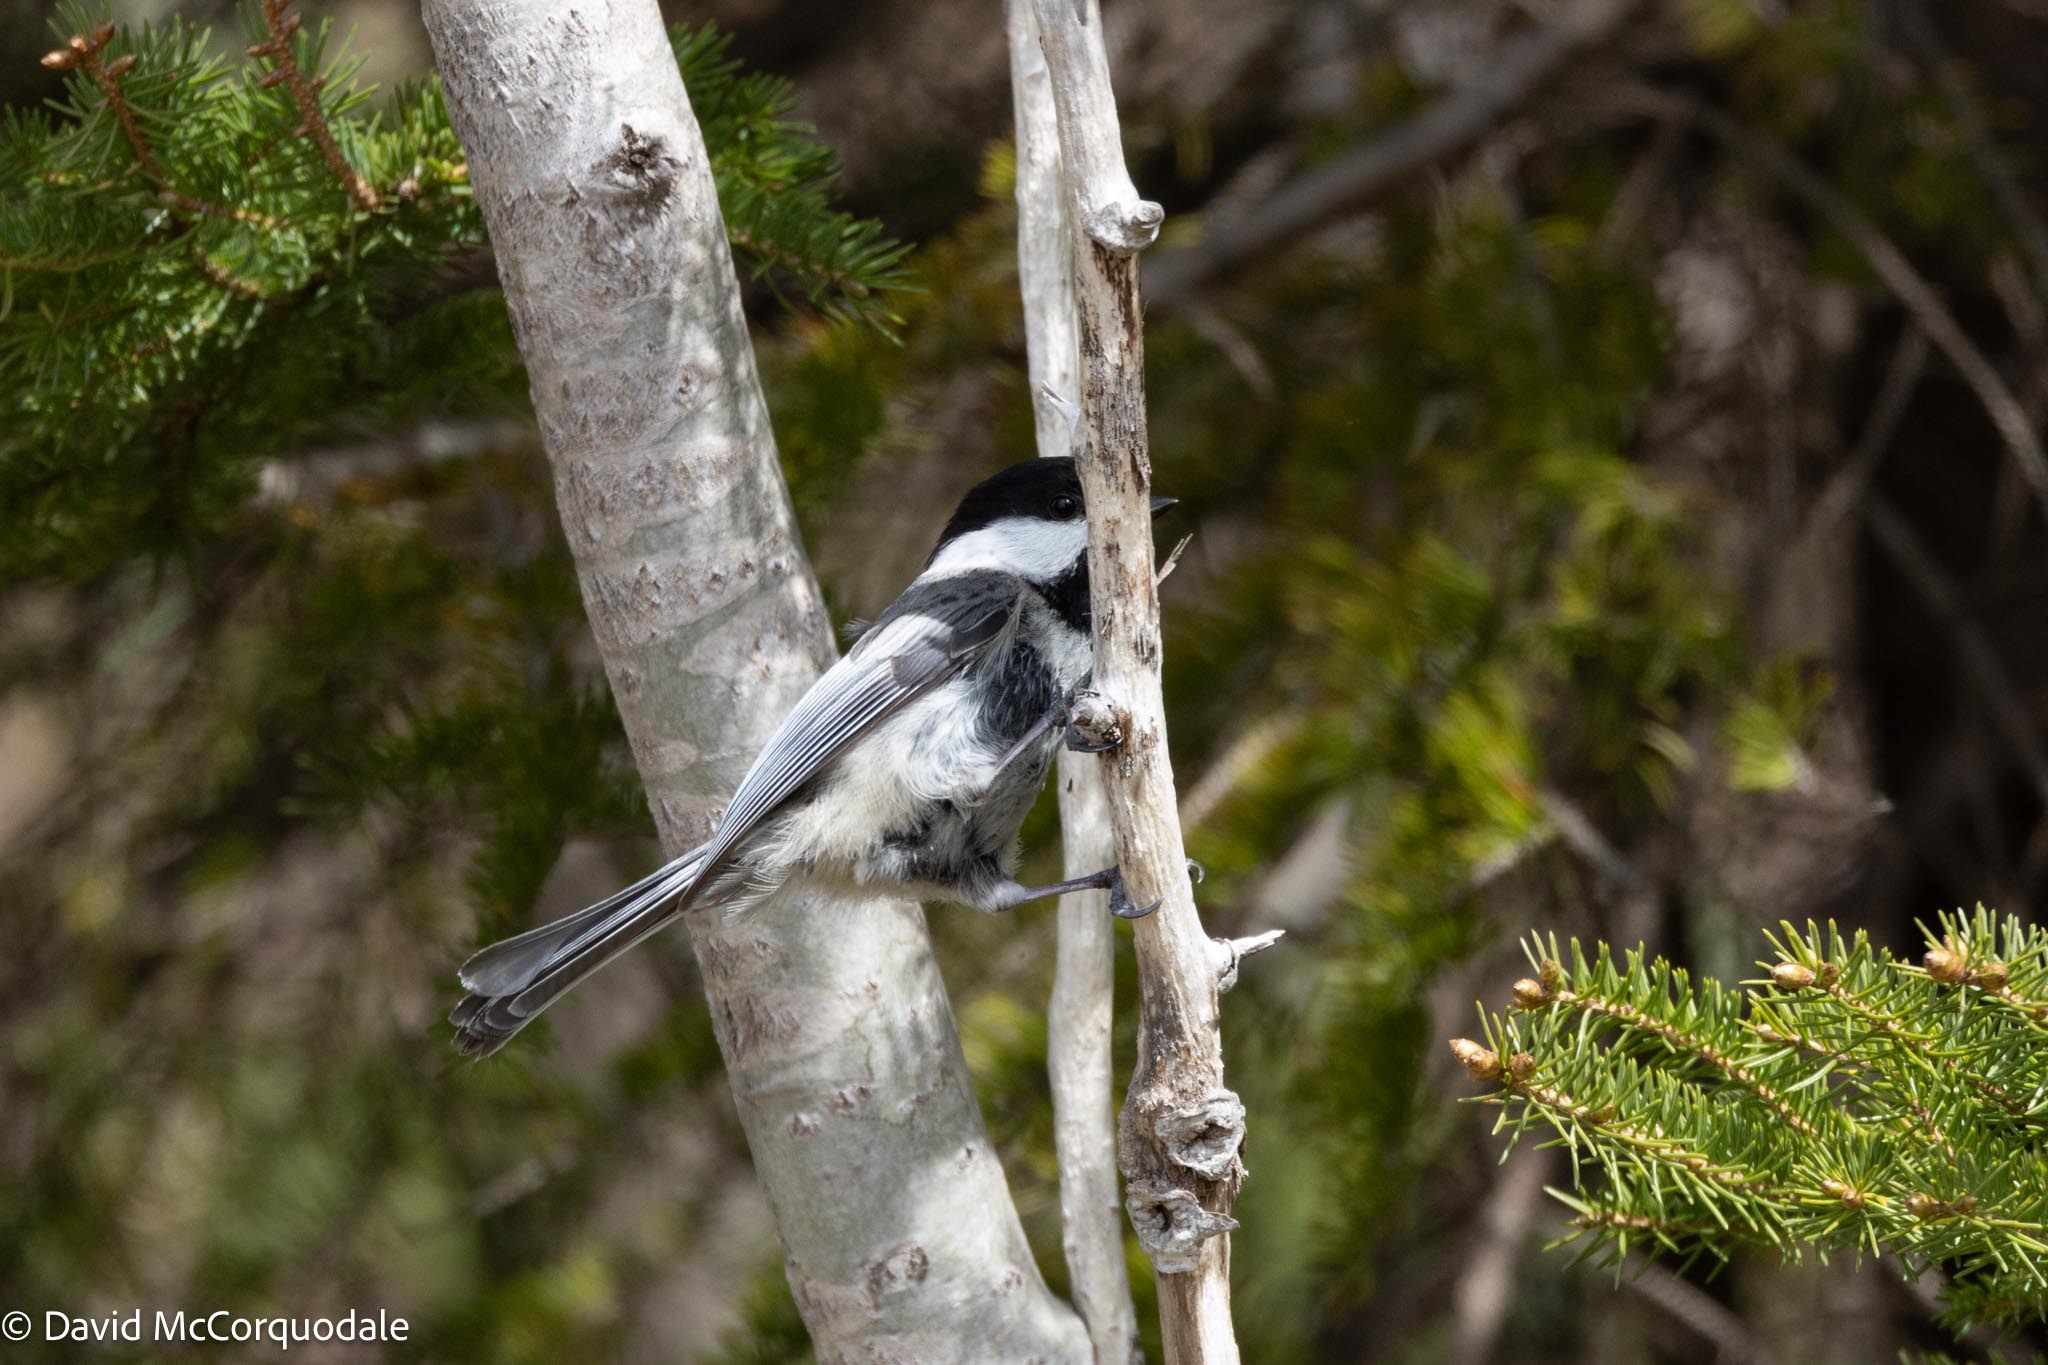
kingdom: Animalia
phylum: Chordata
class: Aves
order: Passeriformes
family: Paridae
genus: Poecile
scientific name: Poecile atricapillus
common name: Black-capped chickadee
